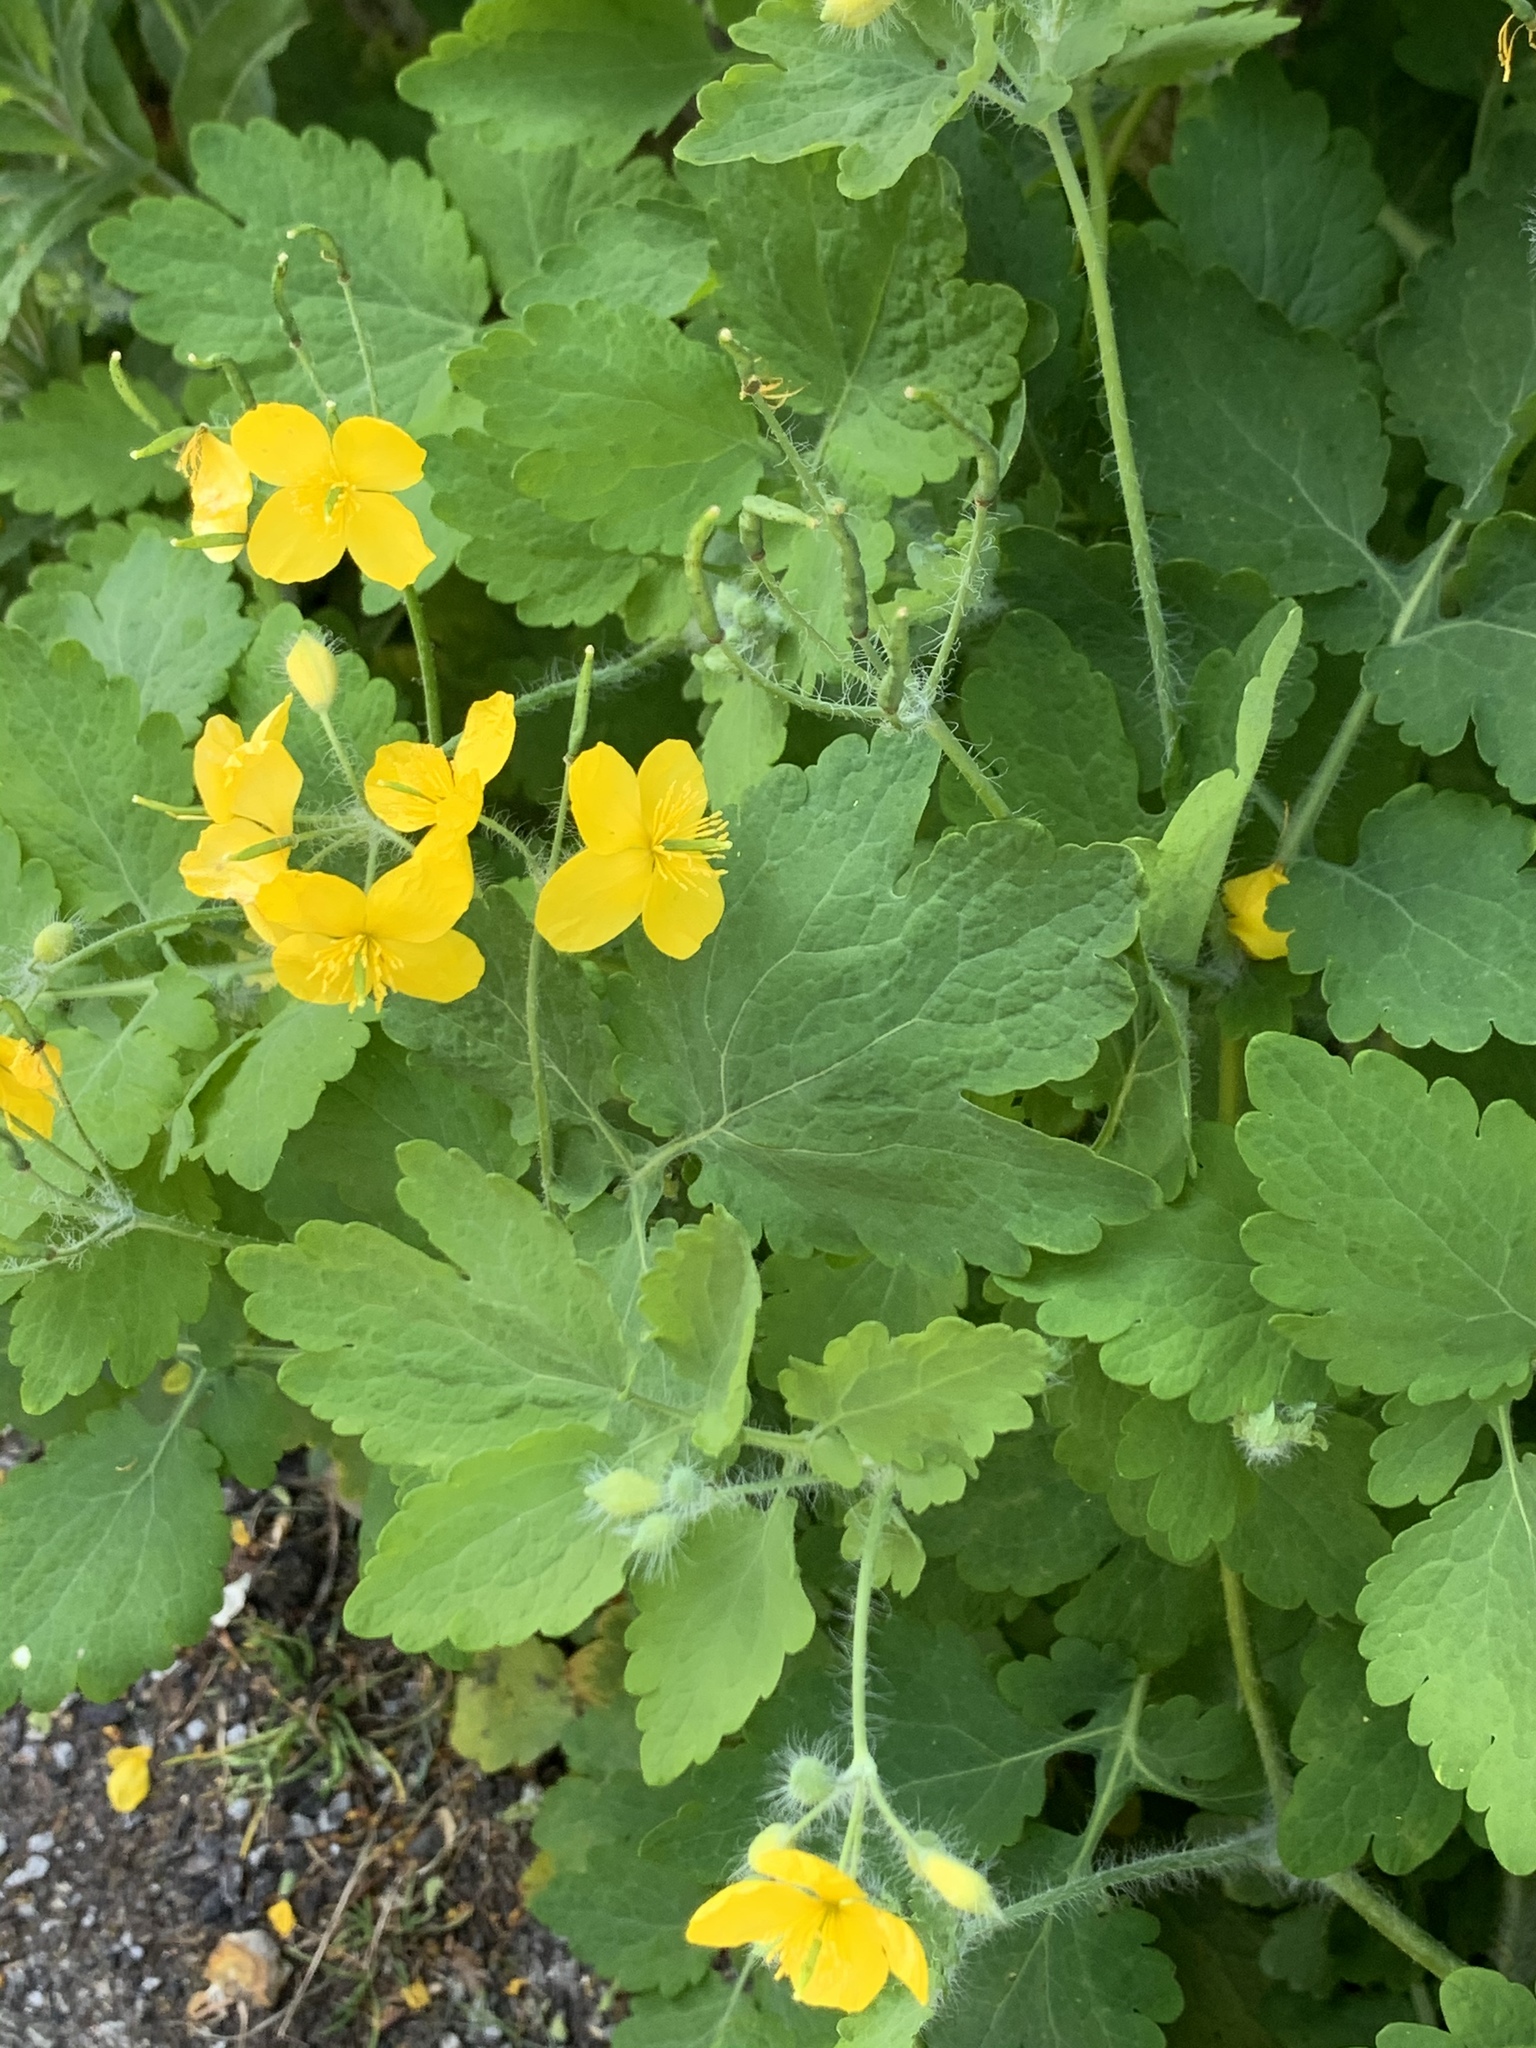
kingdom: Plantae
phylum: Tracheophyta
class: Magnoliopsida
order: Ranunculales
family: Papaveraceae
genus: Chelidonium
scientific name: Chelidonium majus
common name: Greater celandine
